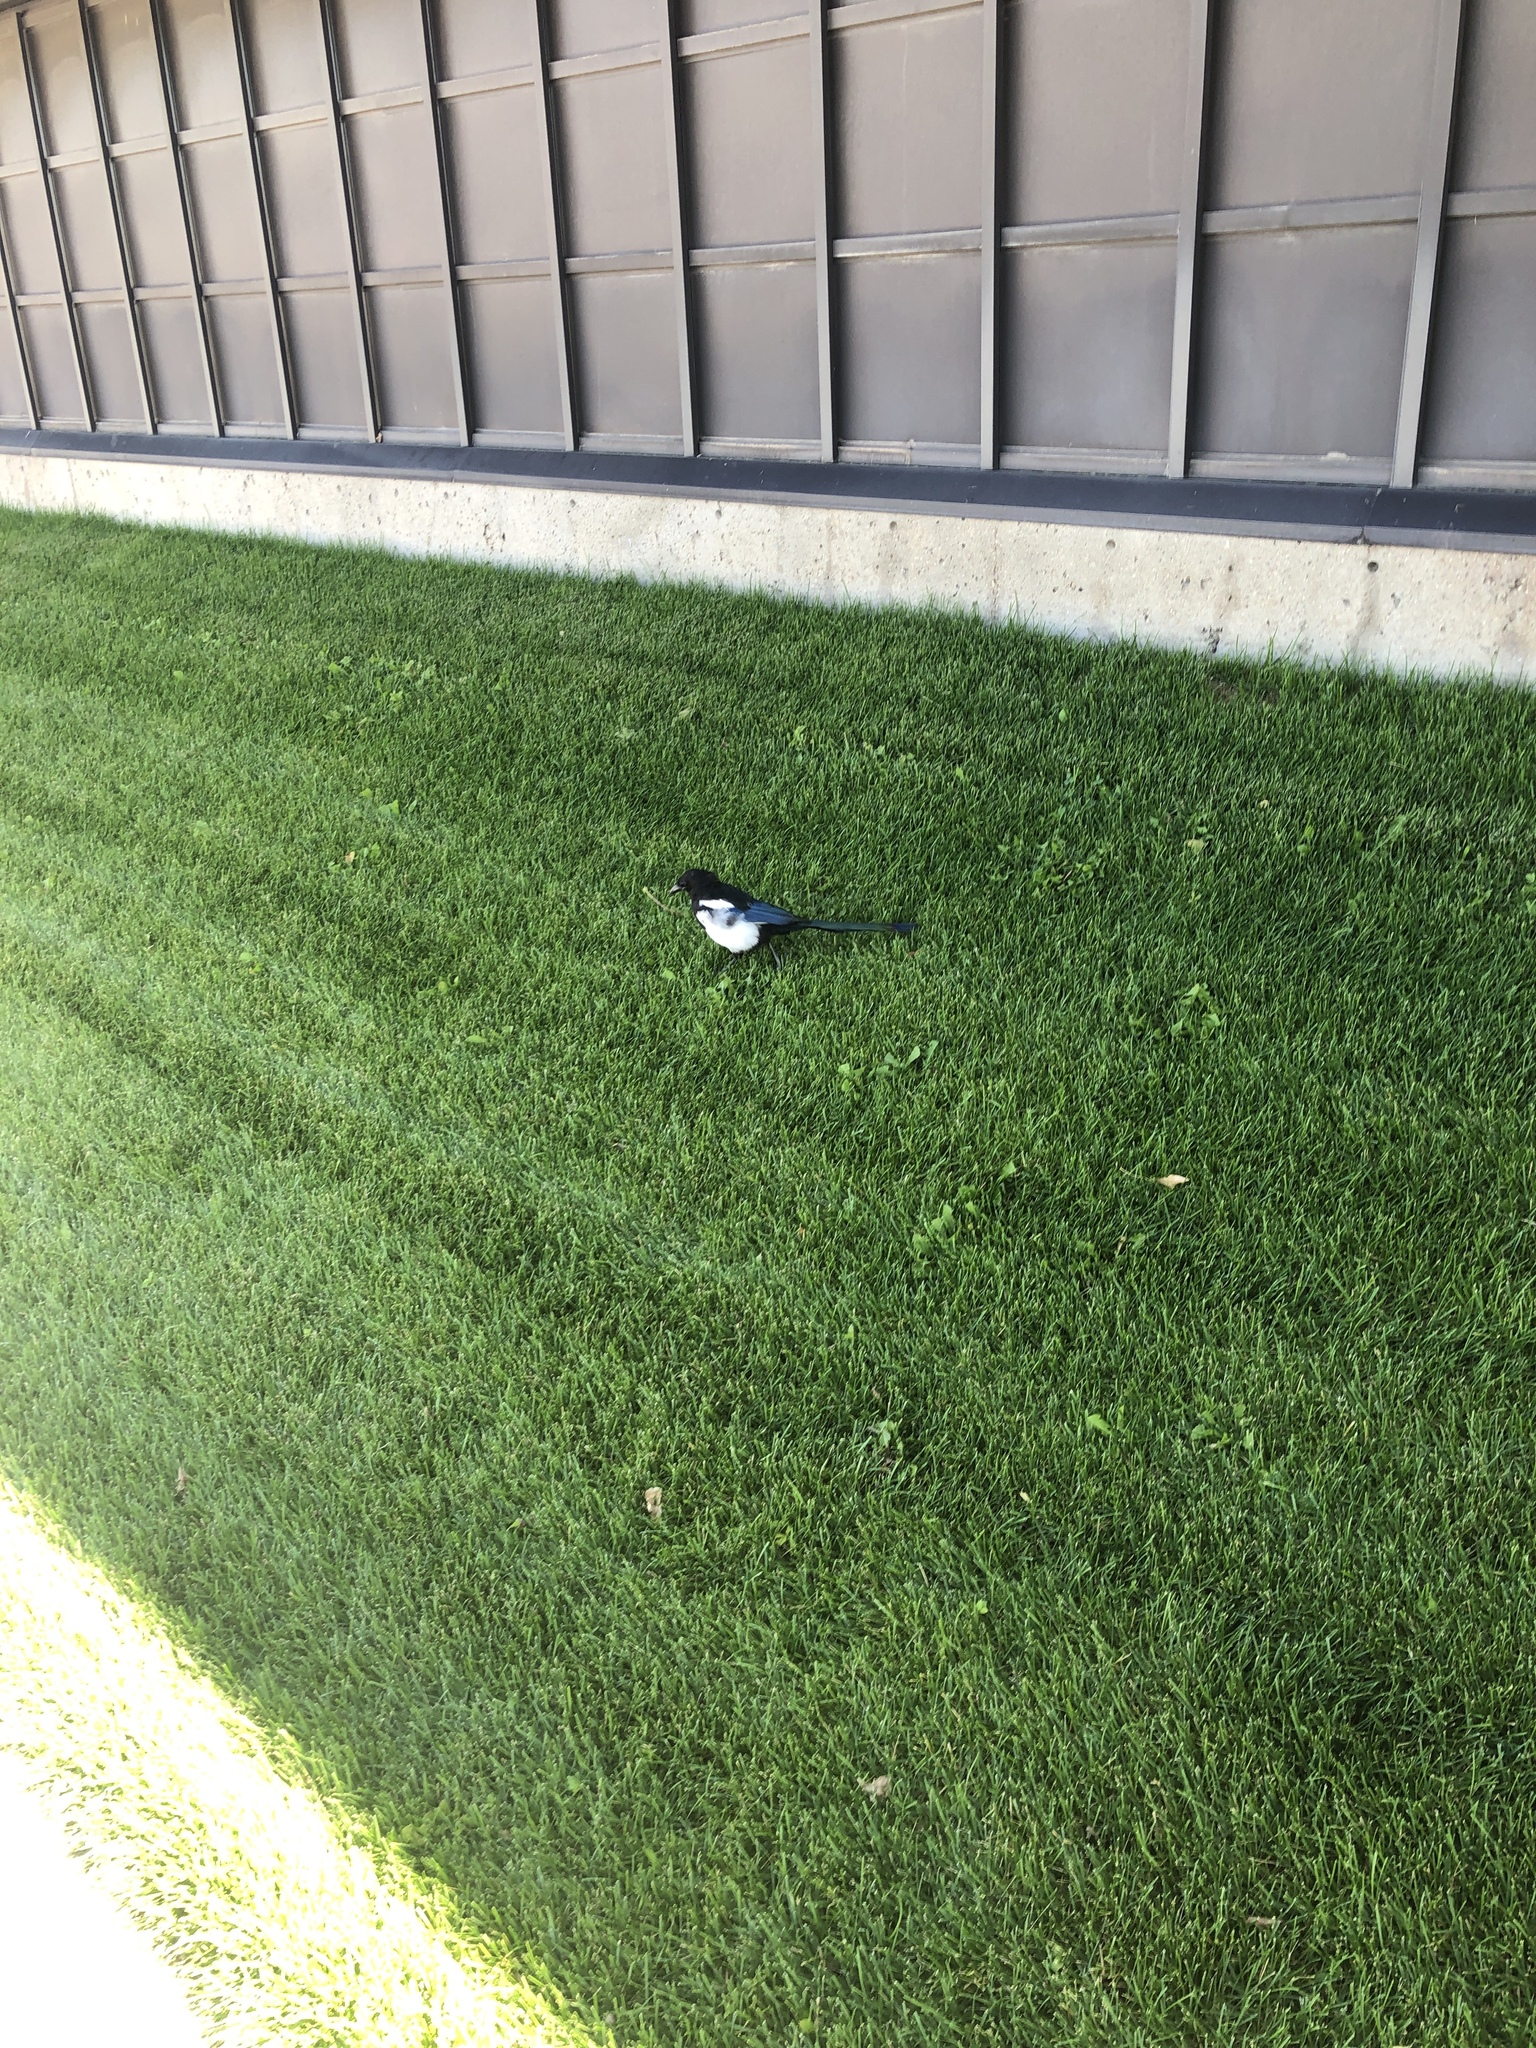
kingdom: Animalia
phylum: Chordata
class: Aves
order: Passeriformes
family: Corvidae
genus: Pica
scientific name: Pica hudsonia
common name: Black-billed magpie
